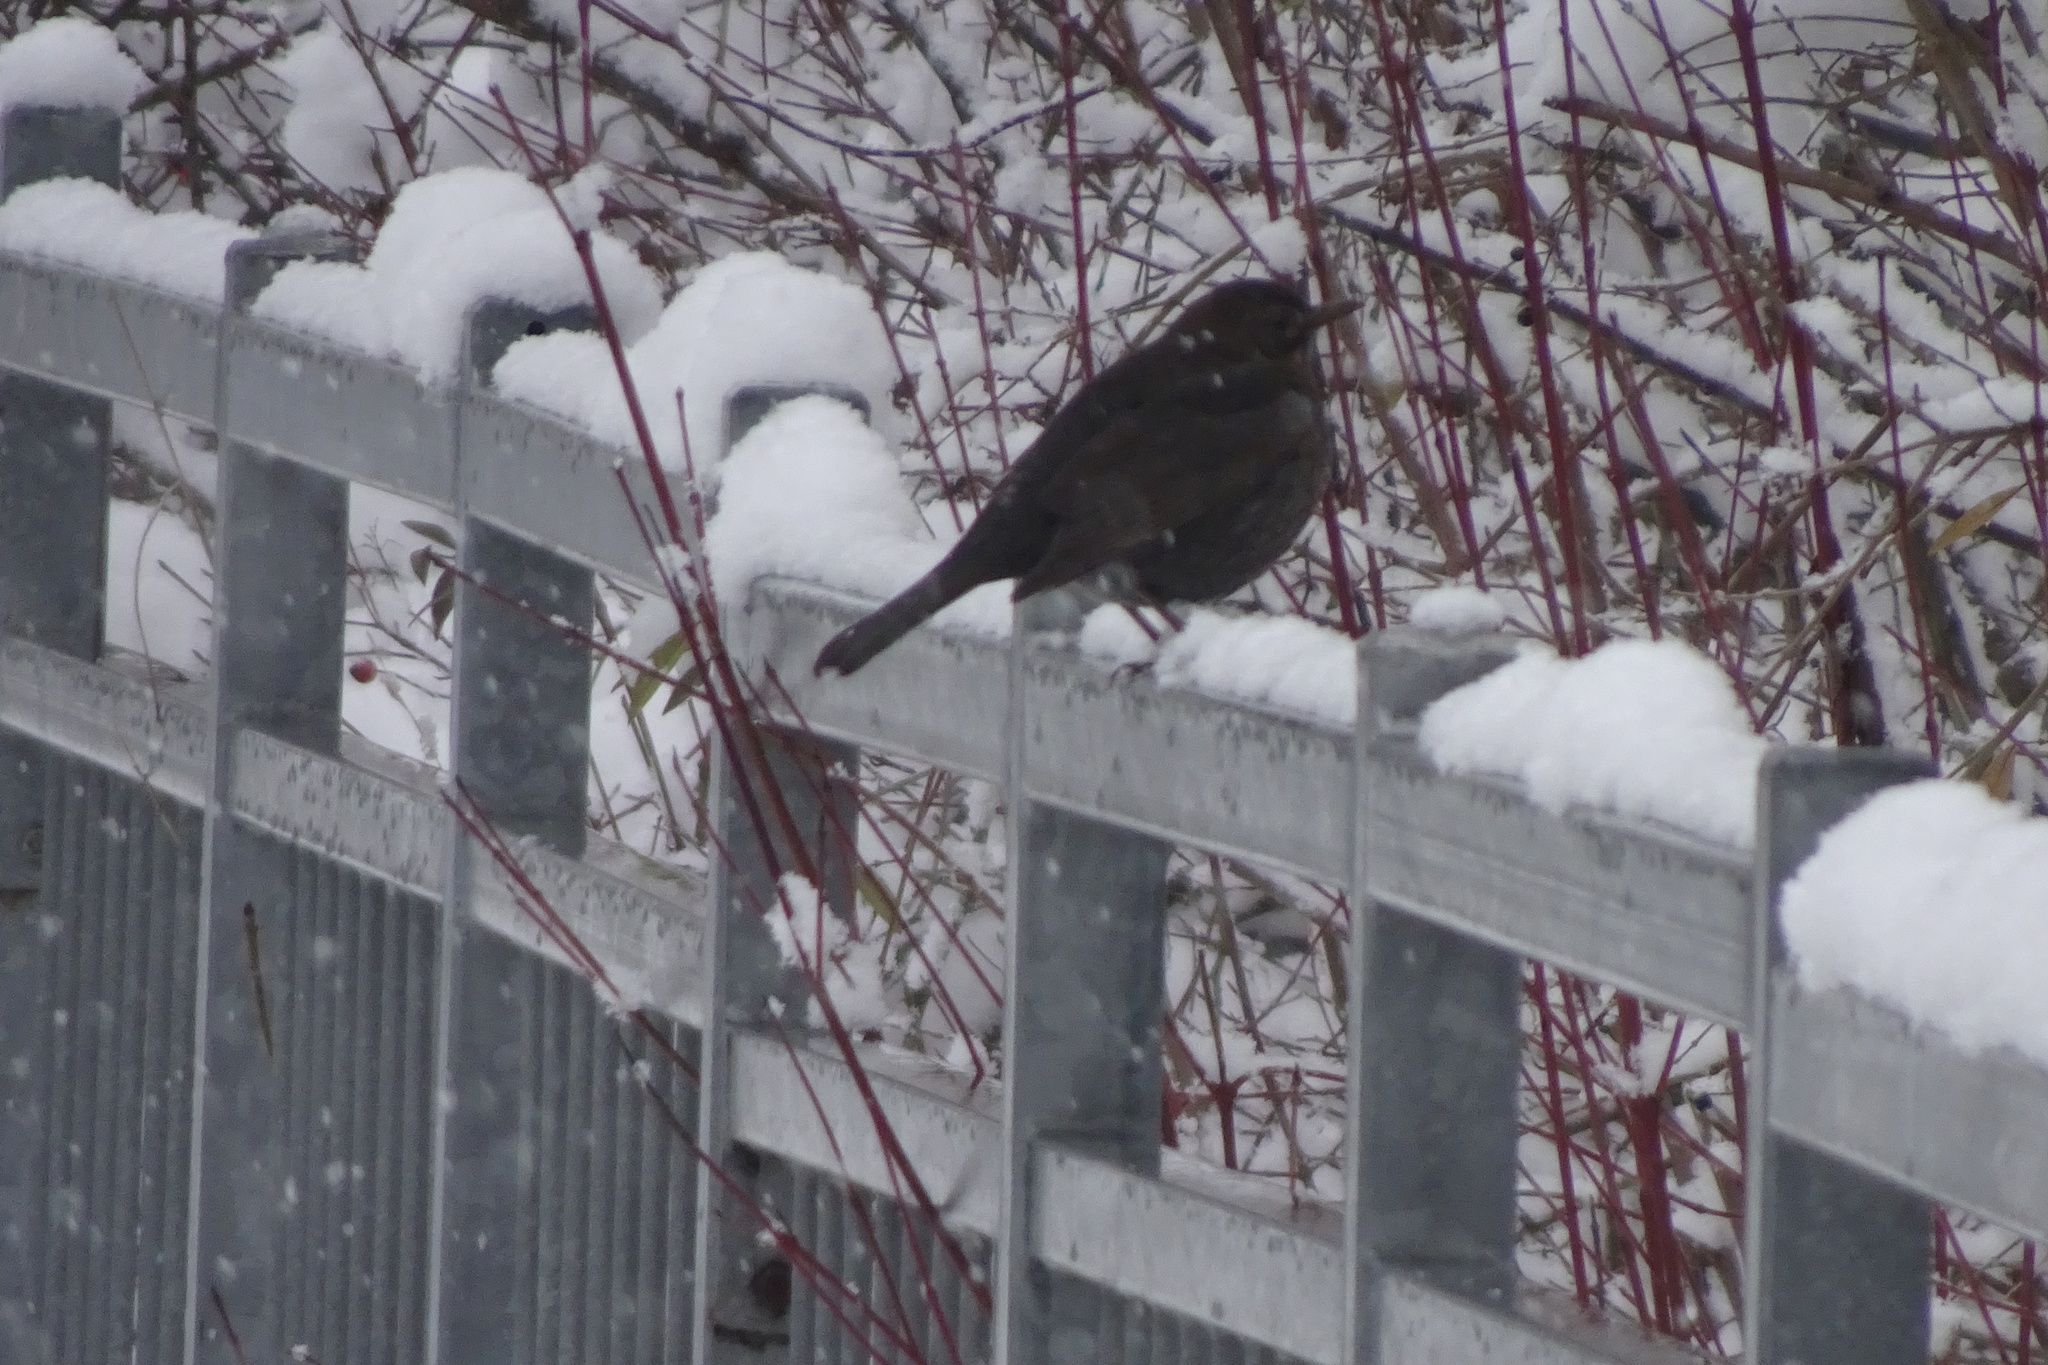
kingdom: Animalia
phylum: Chordata
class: Aves
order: Passeriformes
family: Turdidae
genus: Turdus
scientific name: Turdus merula
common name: Common blackbird
